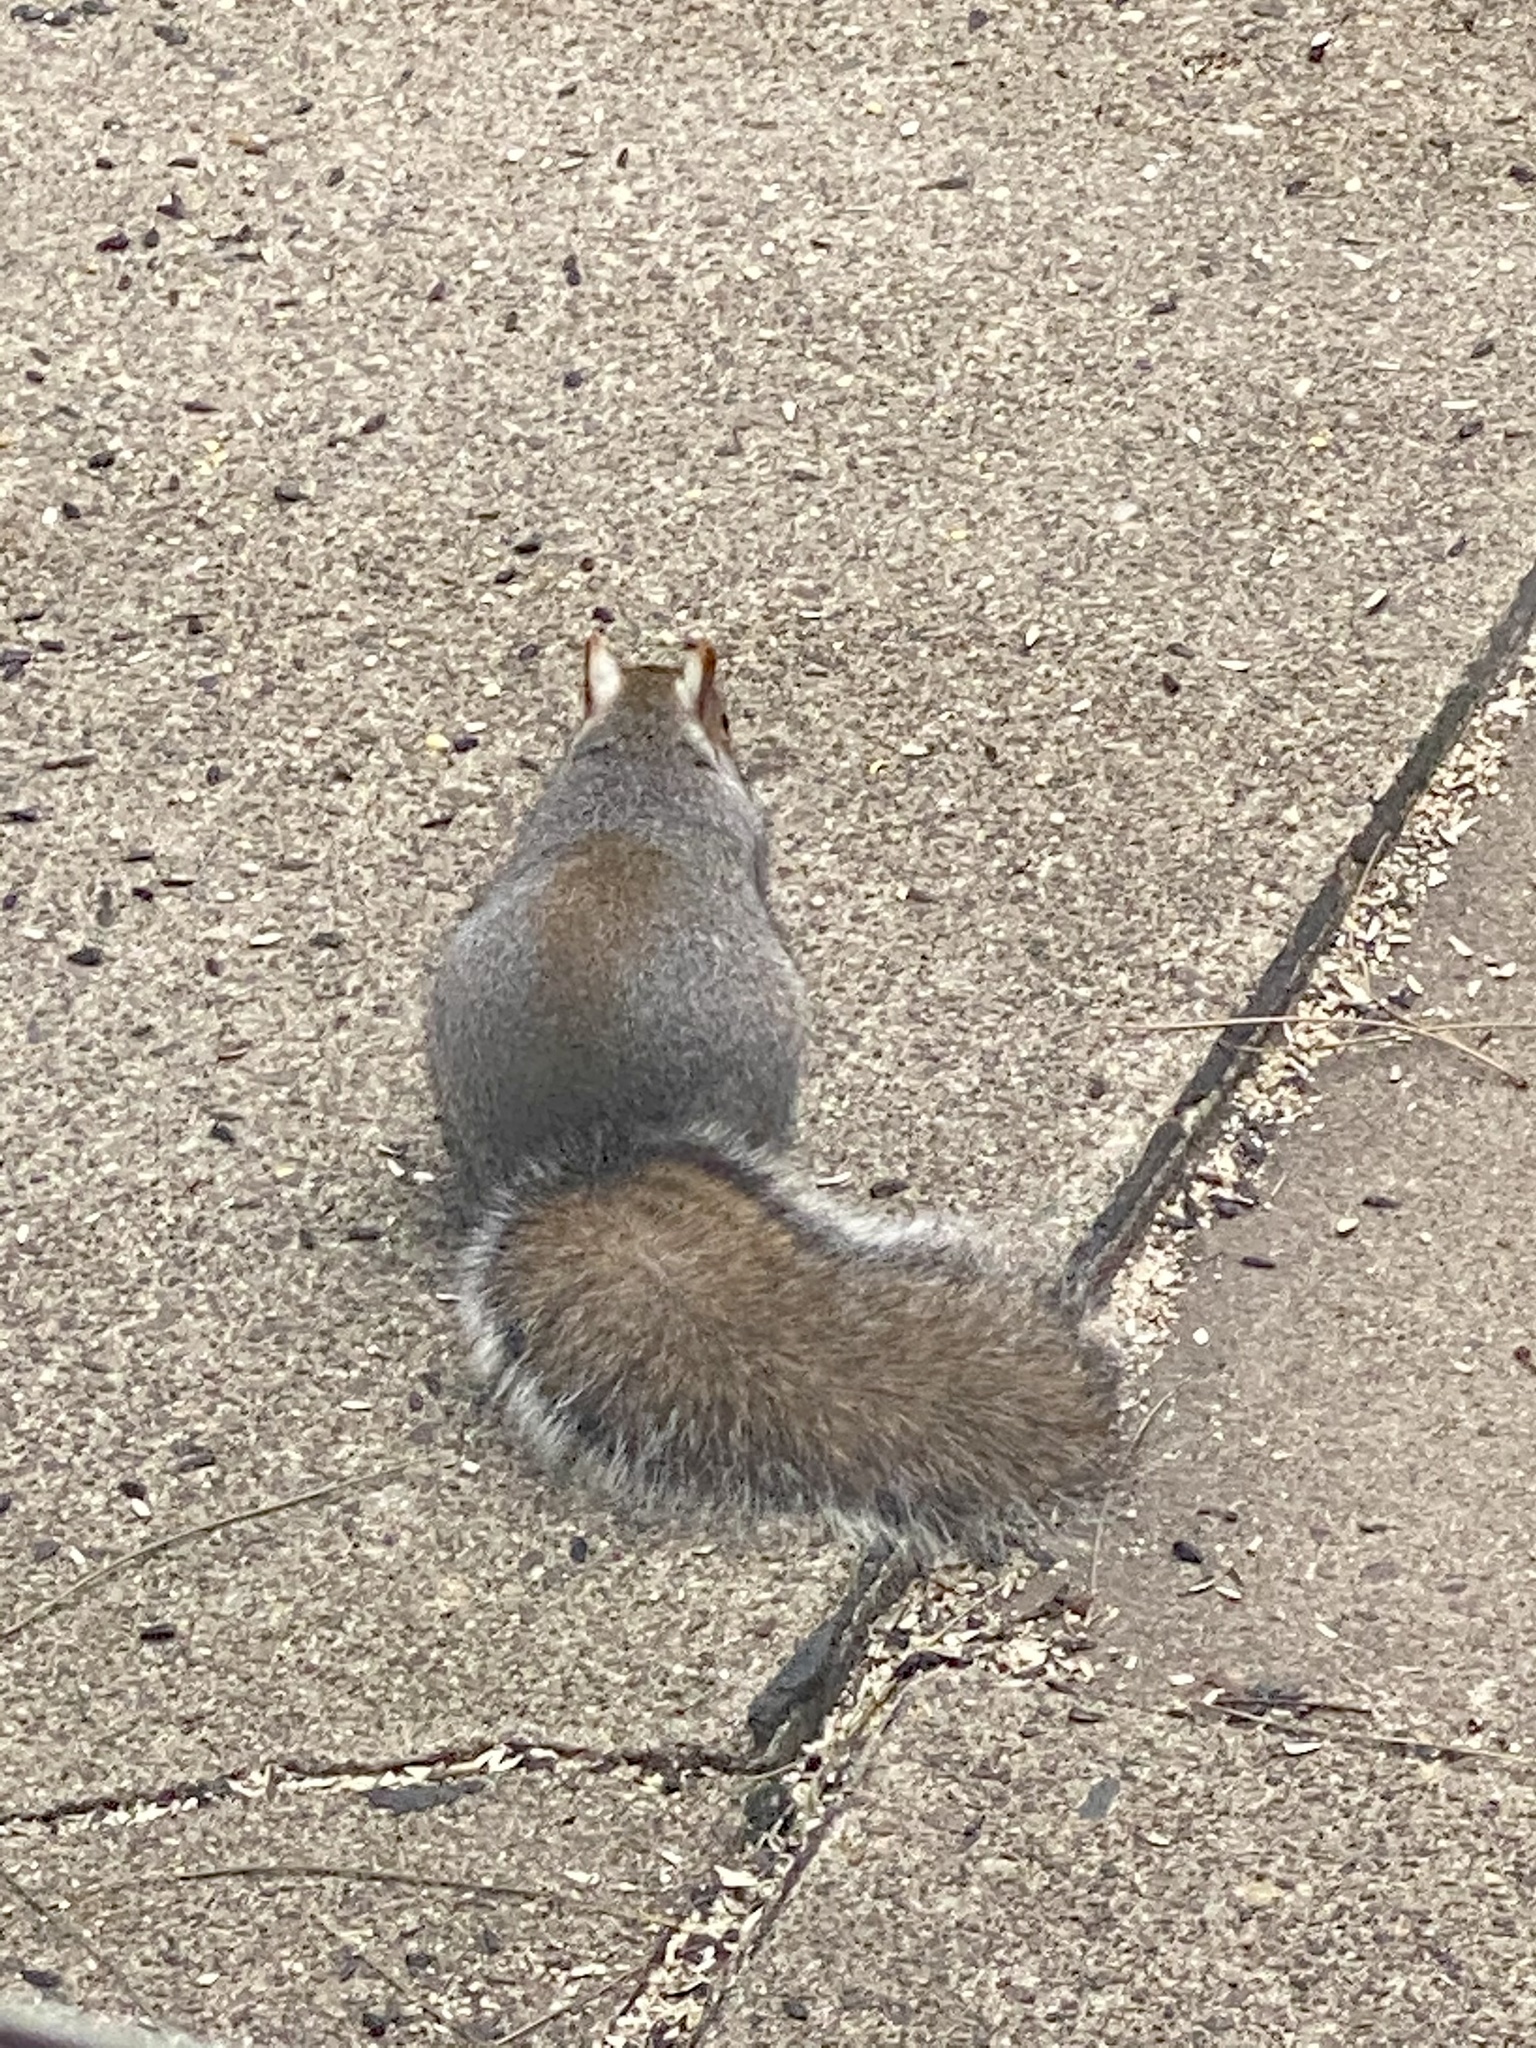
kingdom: Animalia
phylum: Chordata
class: Mammalia
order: Rodentia
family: Sciuridae
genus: Sciurus
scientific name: Sciurus carolinensis
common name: Eastern gray squirrel
